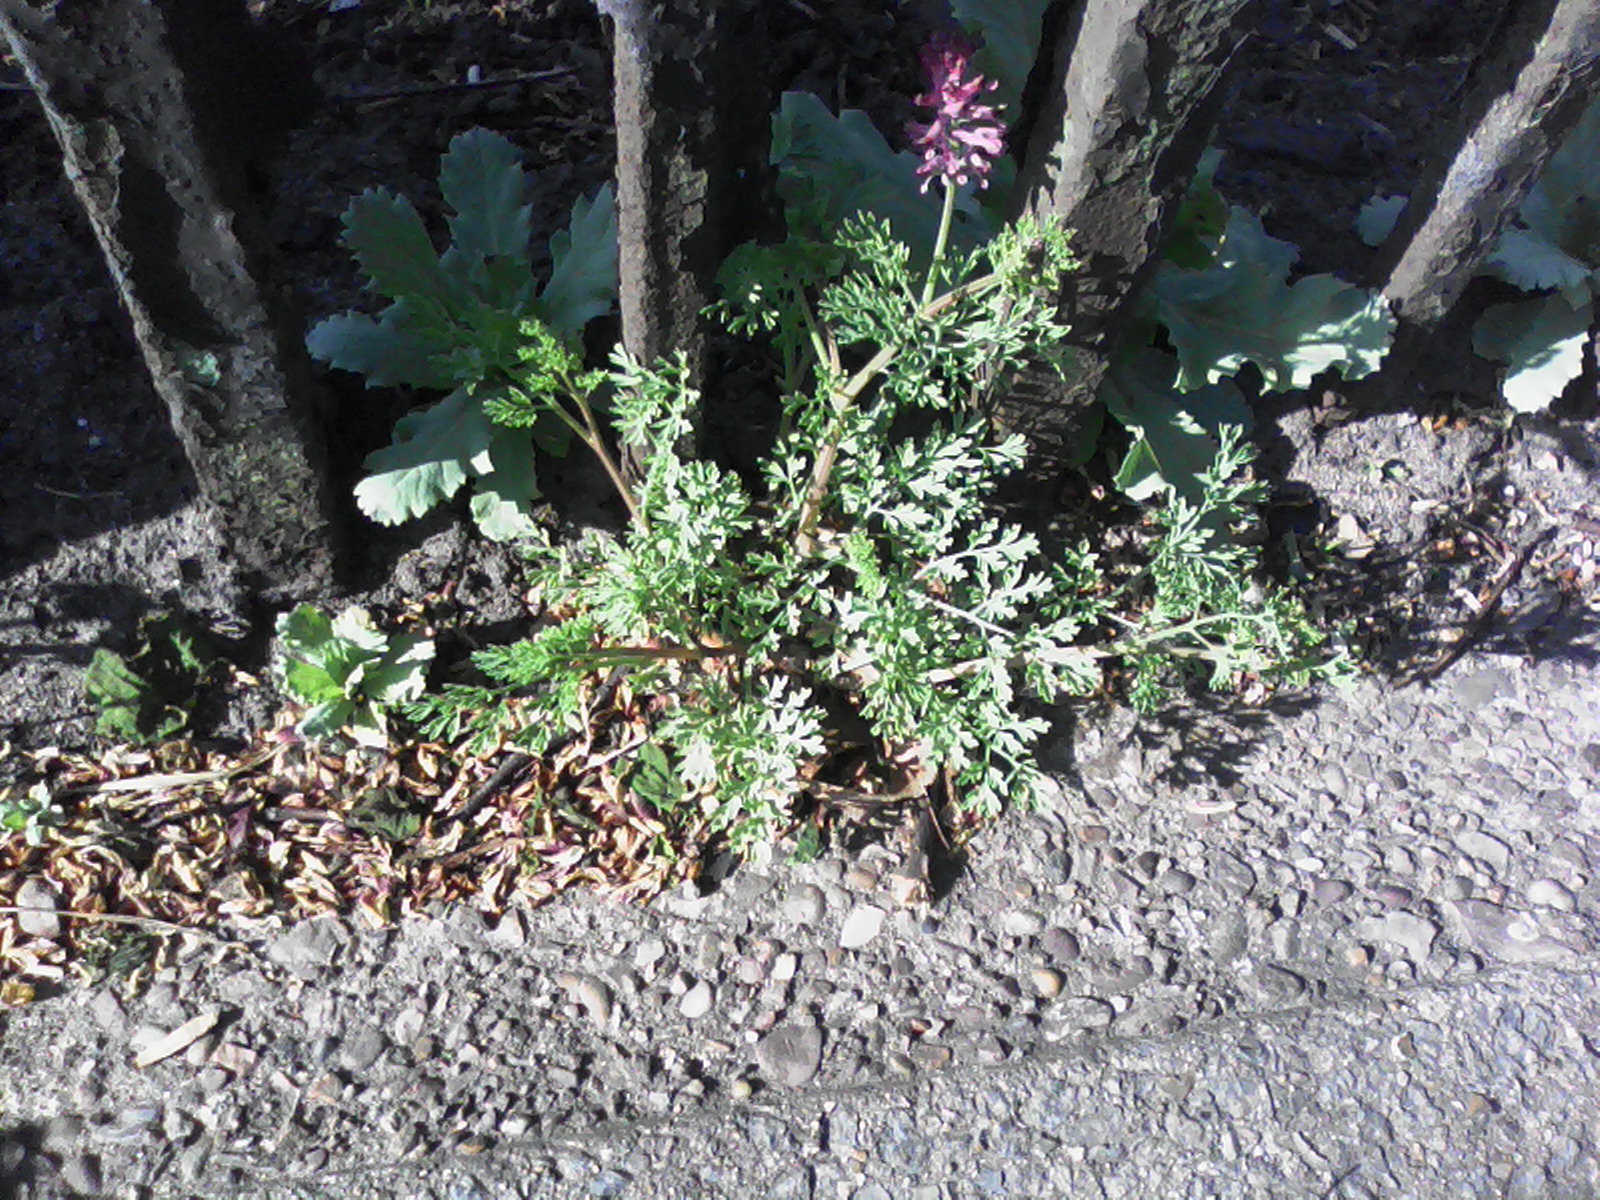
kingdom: Plantae
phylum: Tracheophyta
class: Magnoliopsida
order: Ranunculales
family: Papaveraceae
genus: Fumaria
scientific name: Fumaria officinalis
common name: Common fumitory
